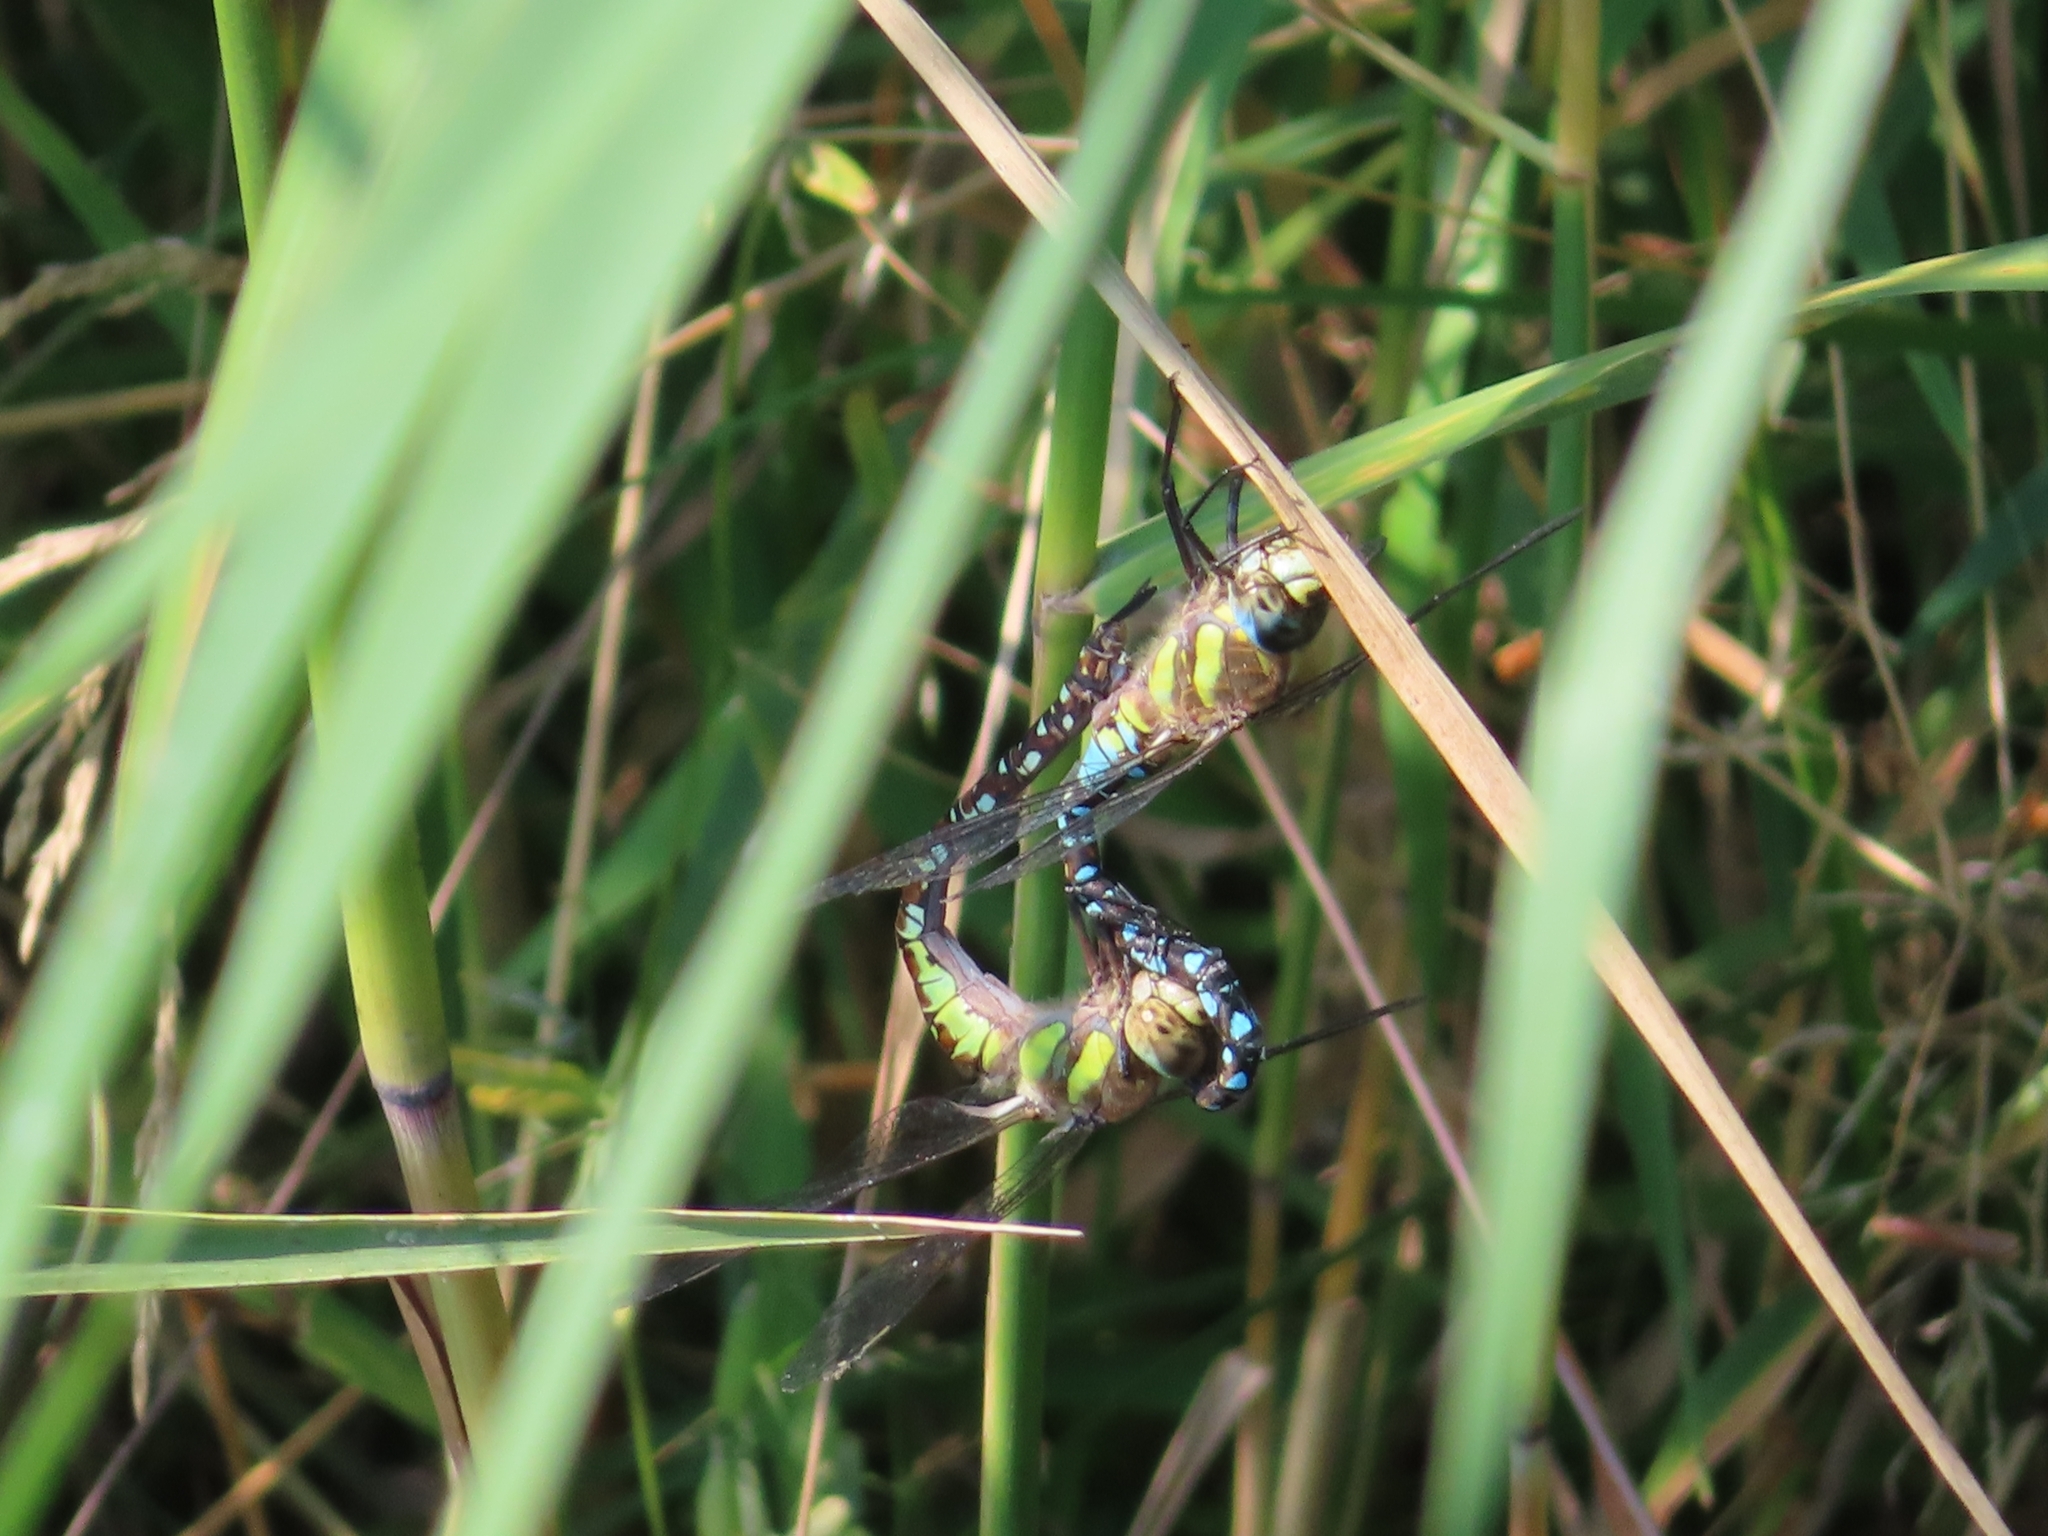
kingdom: Animalia
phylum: Arthropoda
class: Insecta
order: Odonata
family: Aeshnidae
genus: Aeshna
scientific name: Aeshna mixta
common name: Migrant hawker
